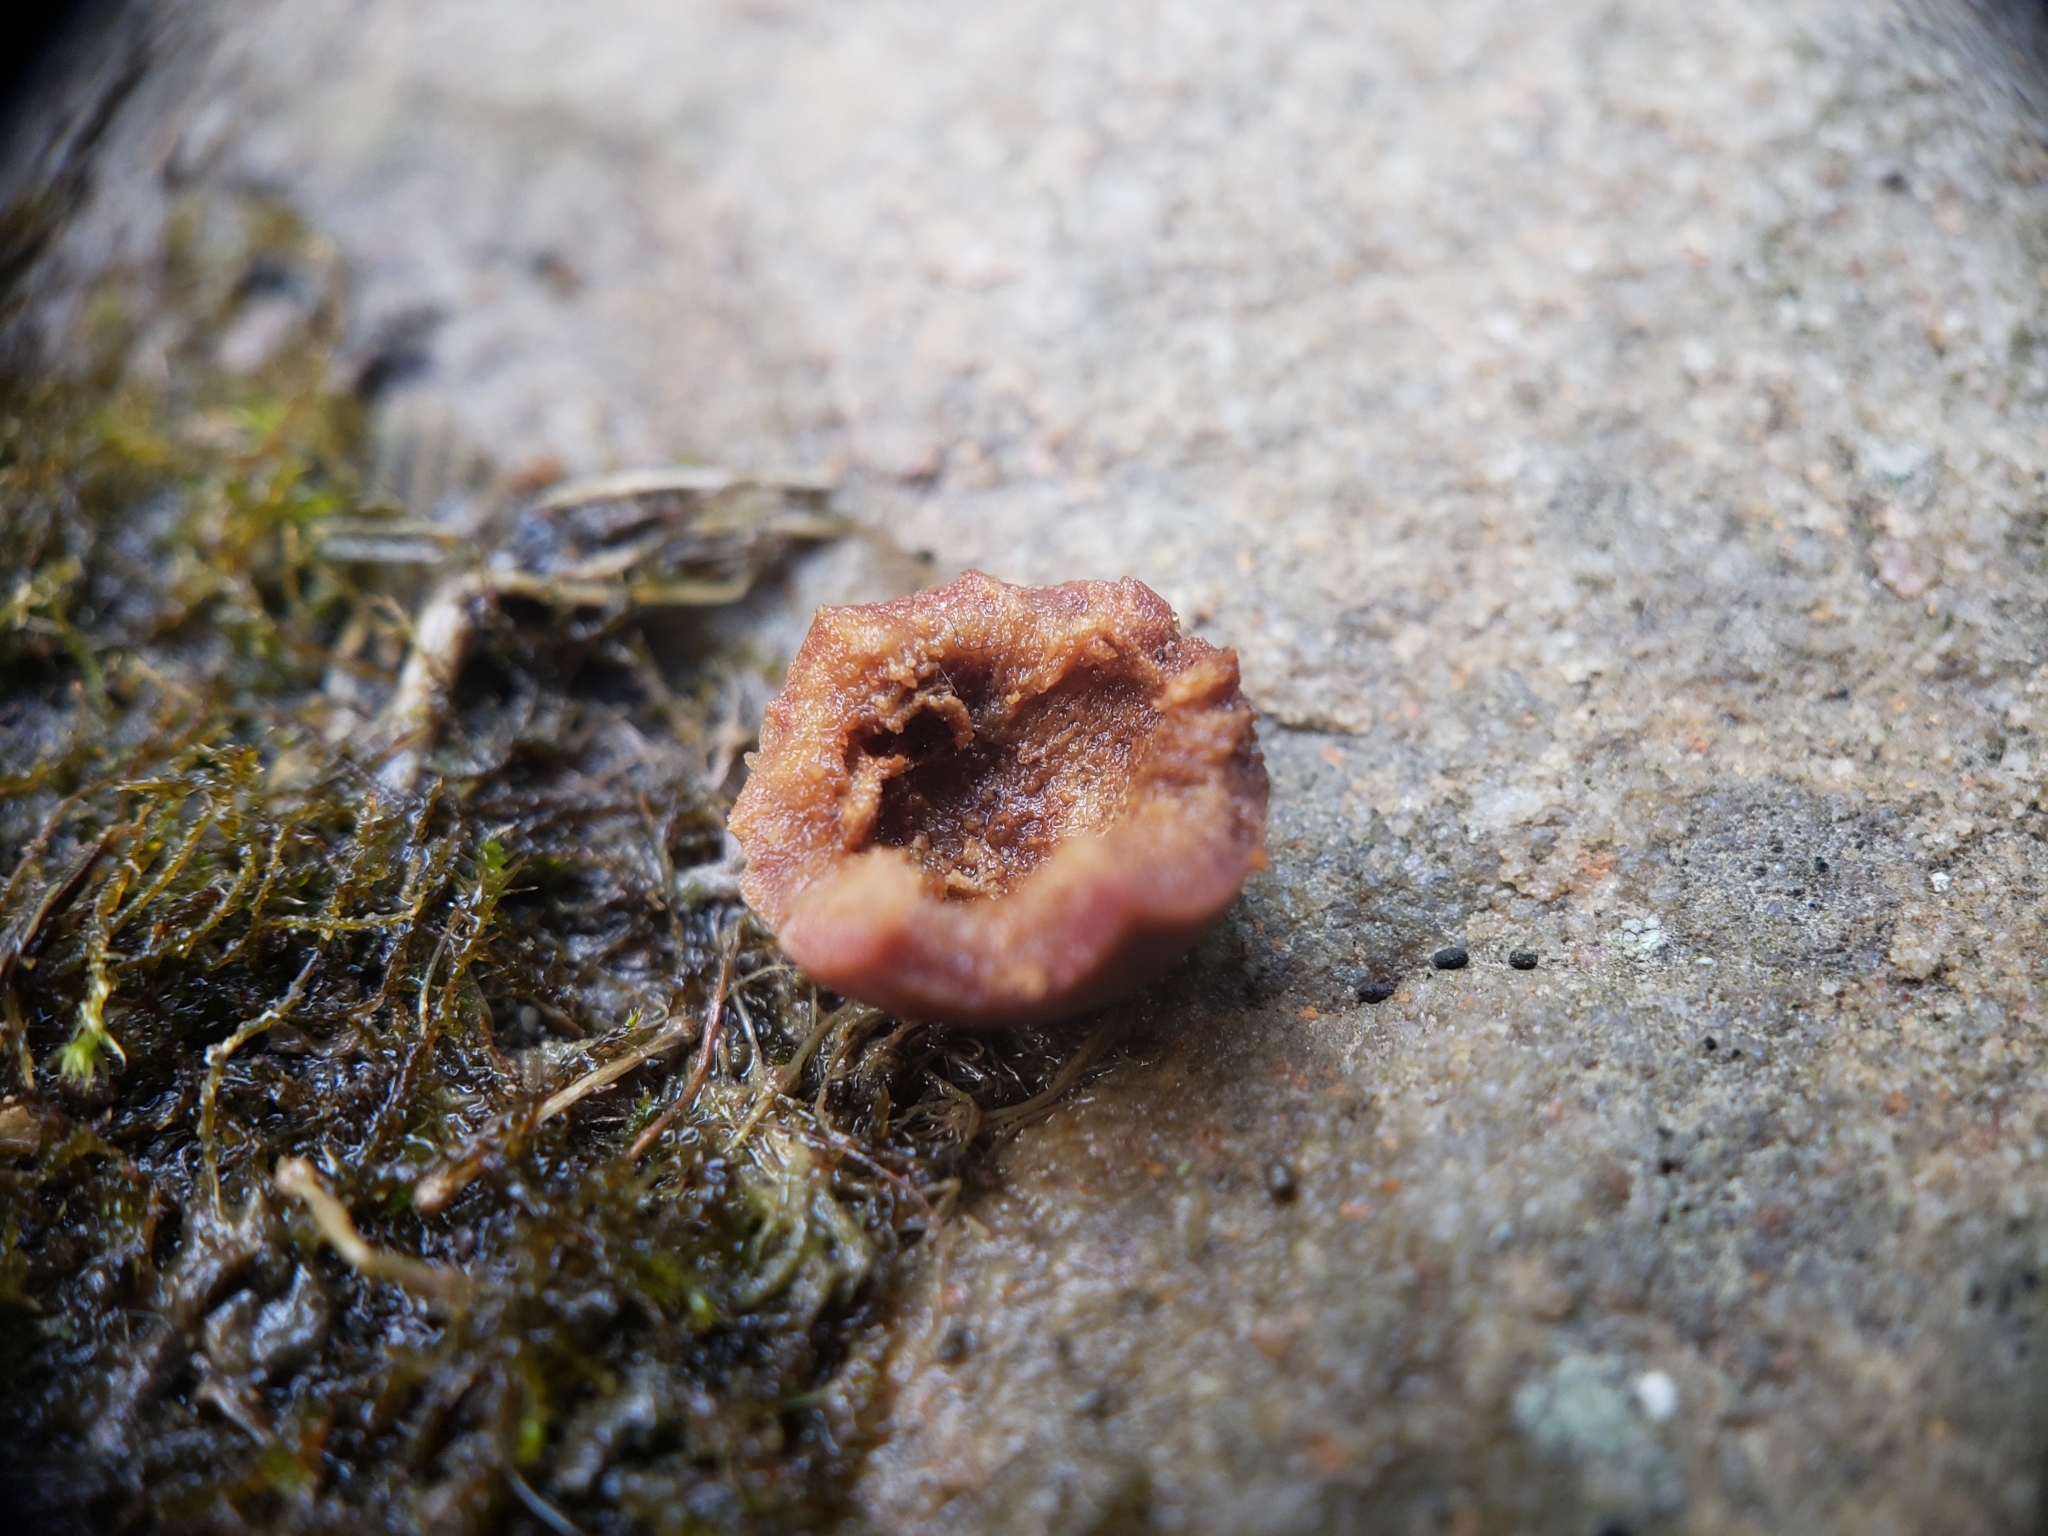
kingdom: Animalia
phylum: Arthropoda
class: Insecta
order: Hymenoptera
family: Cynipidae
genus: Kokkocynips
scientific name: Kokkocynips imbricariae
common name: Banded bullet gall wasp
